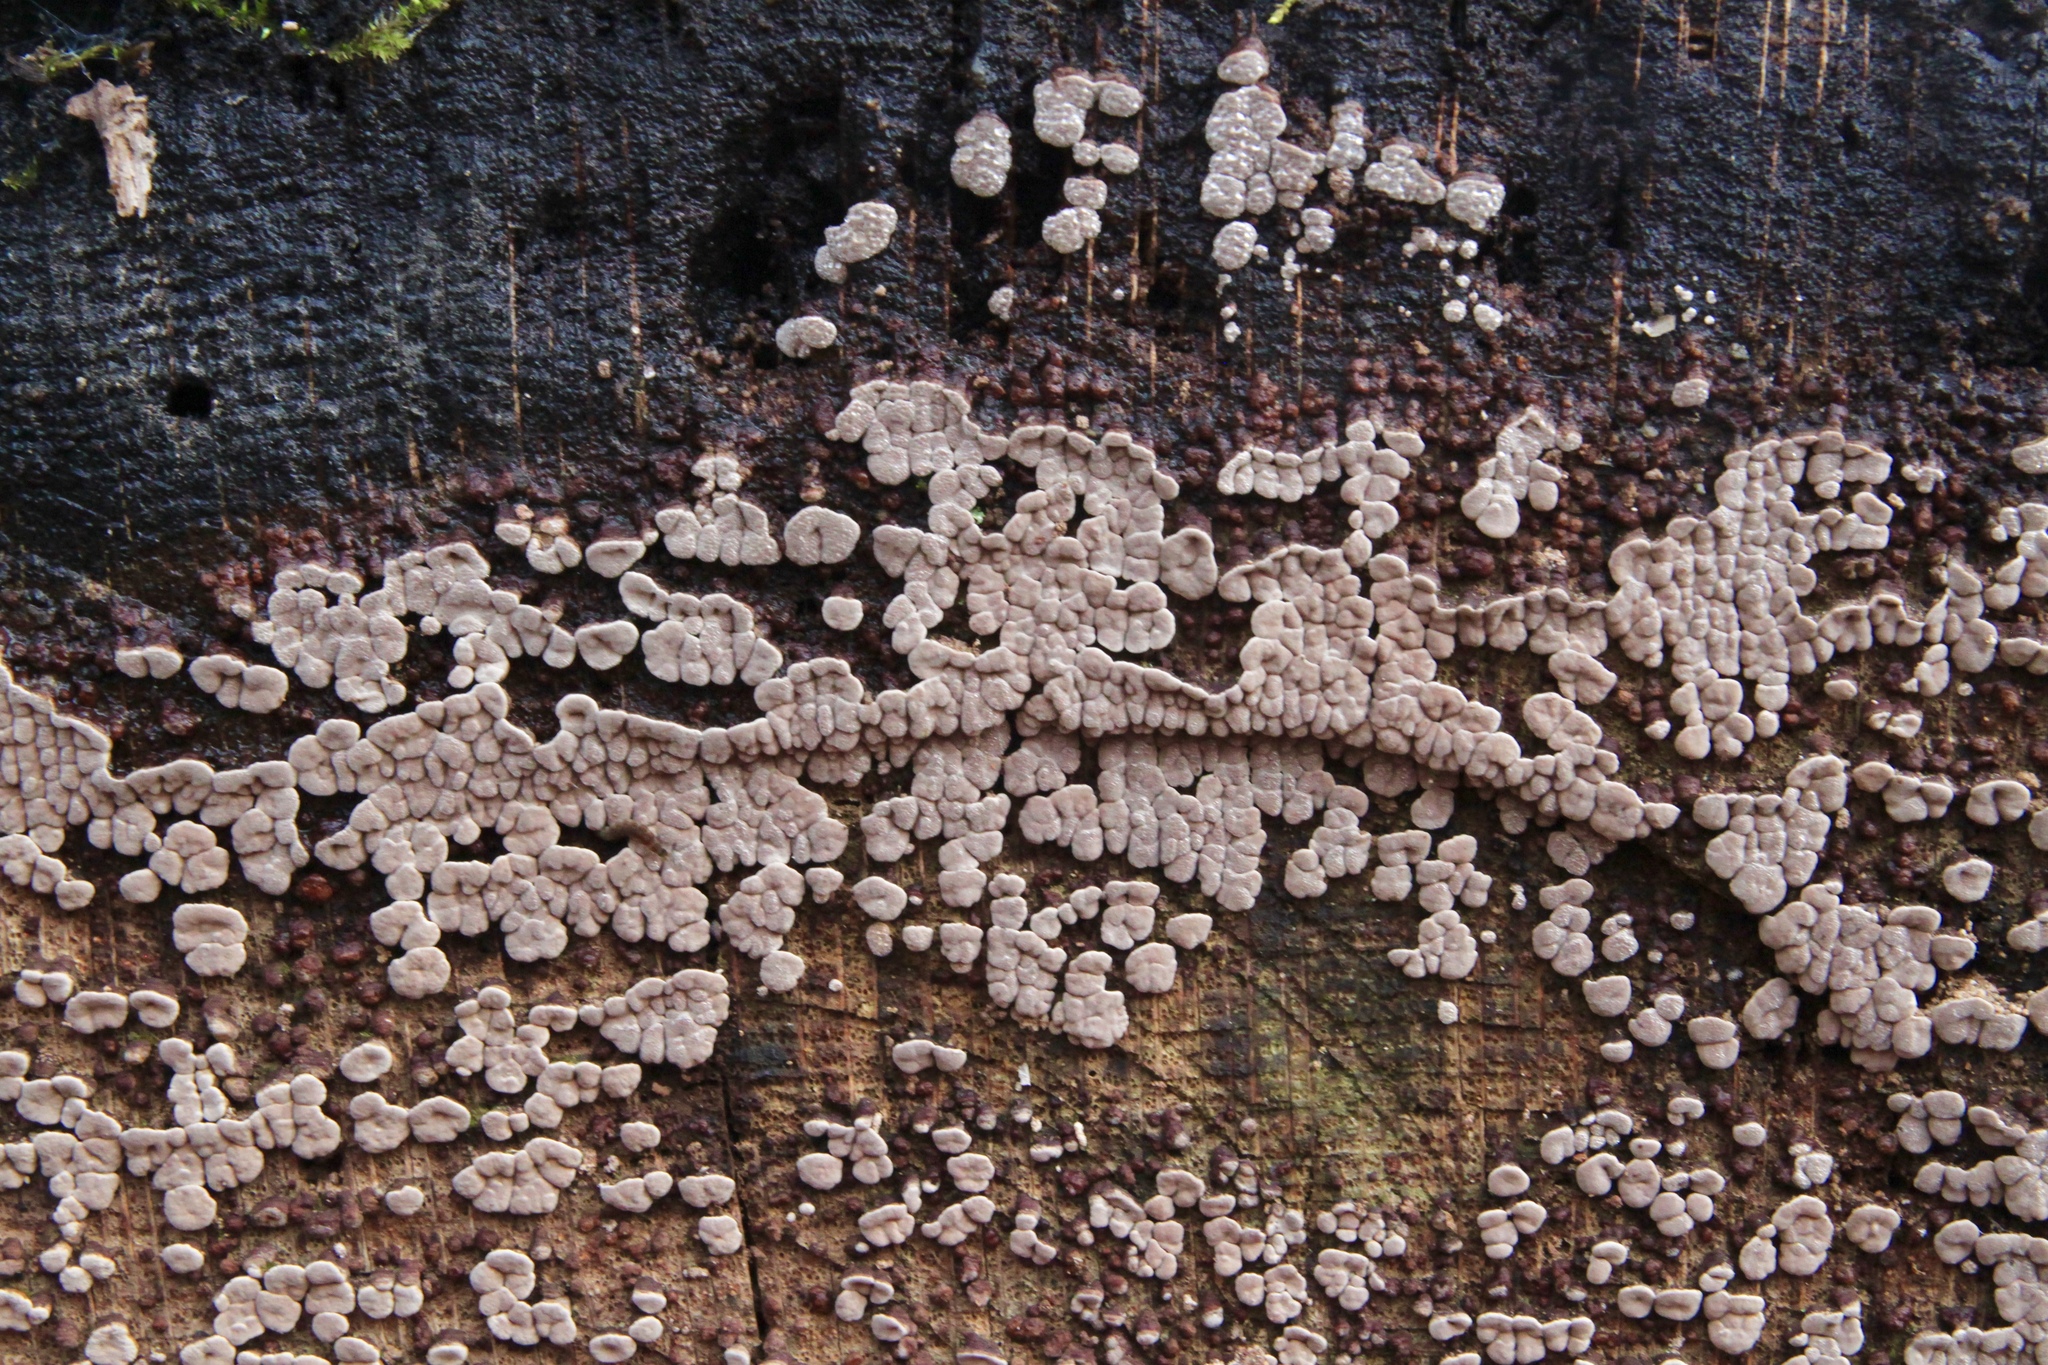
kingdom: Fungi
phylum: Basidiomycota
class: Agaricomycetes
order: Russulales
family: Stereaceae
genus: Xylobolus
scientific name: Xylobolus frustulatus
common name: Ceramic parchment
